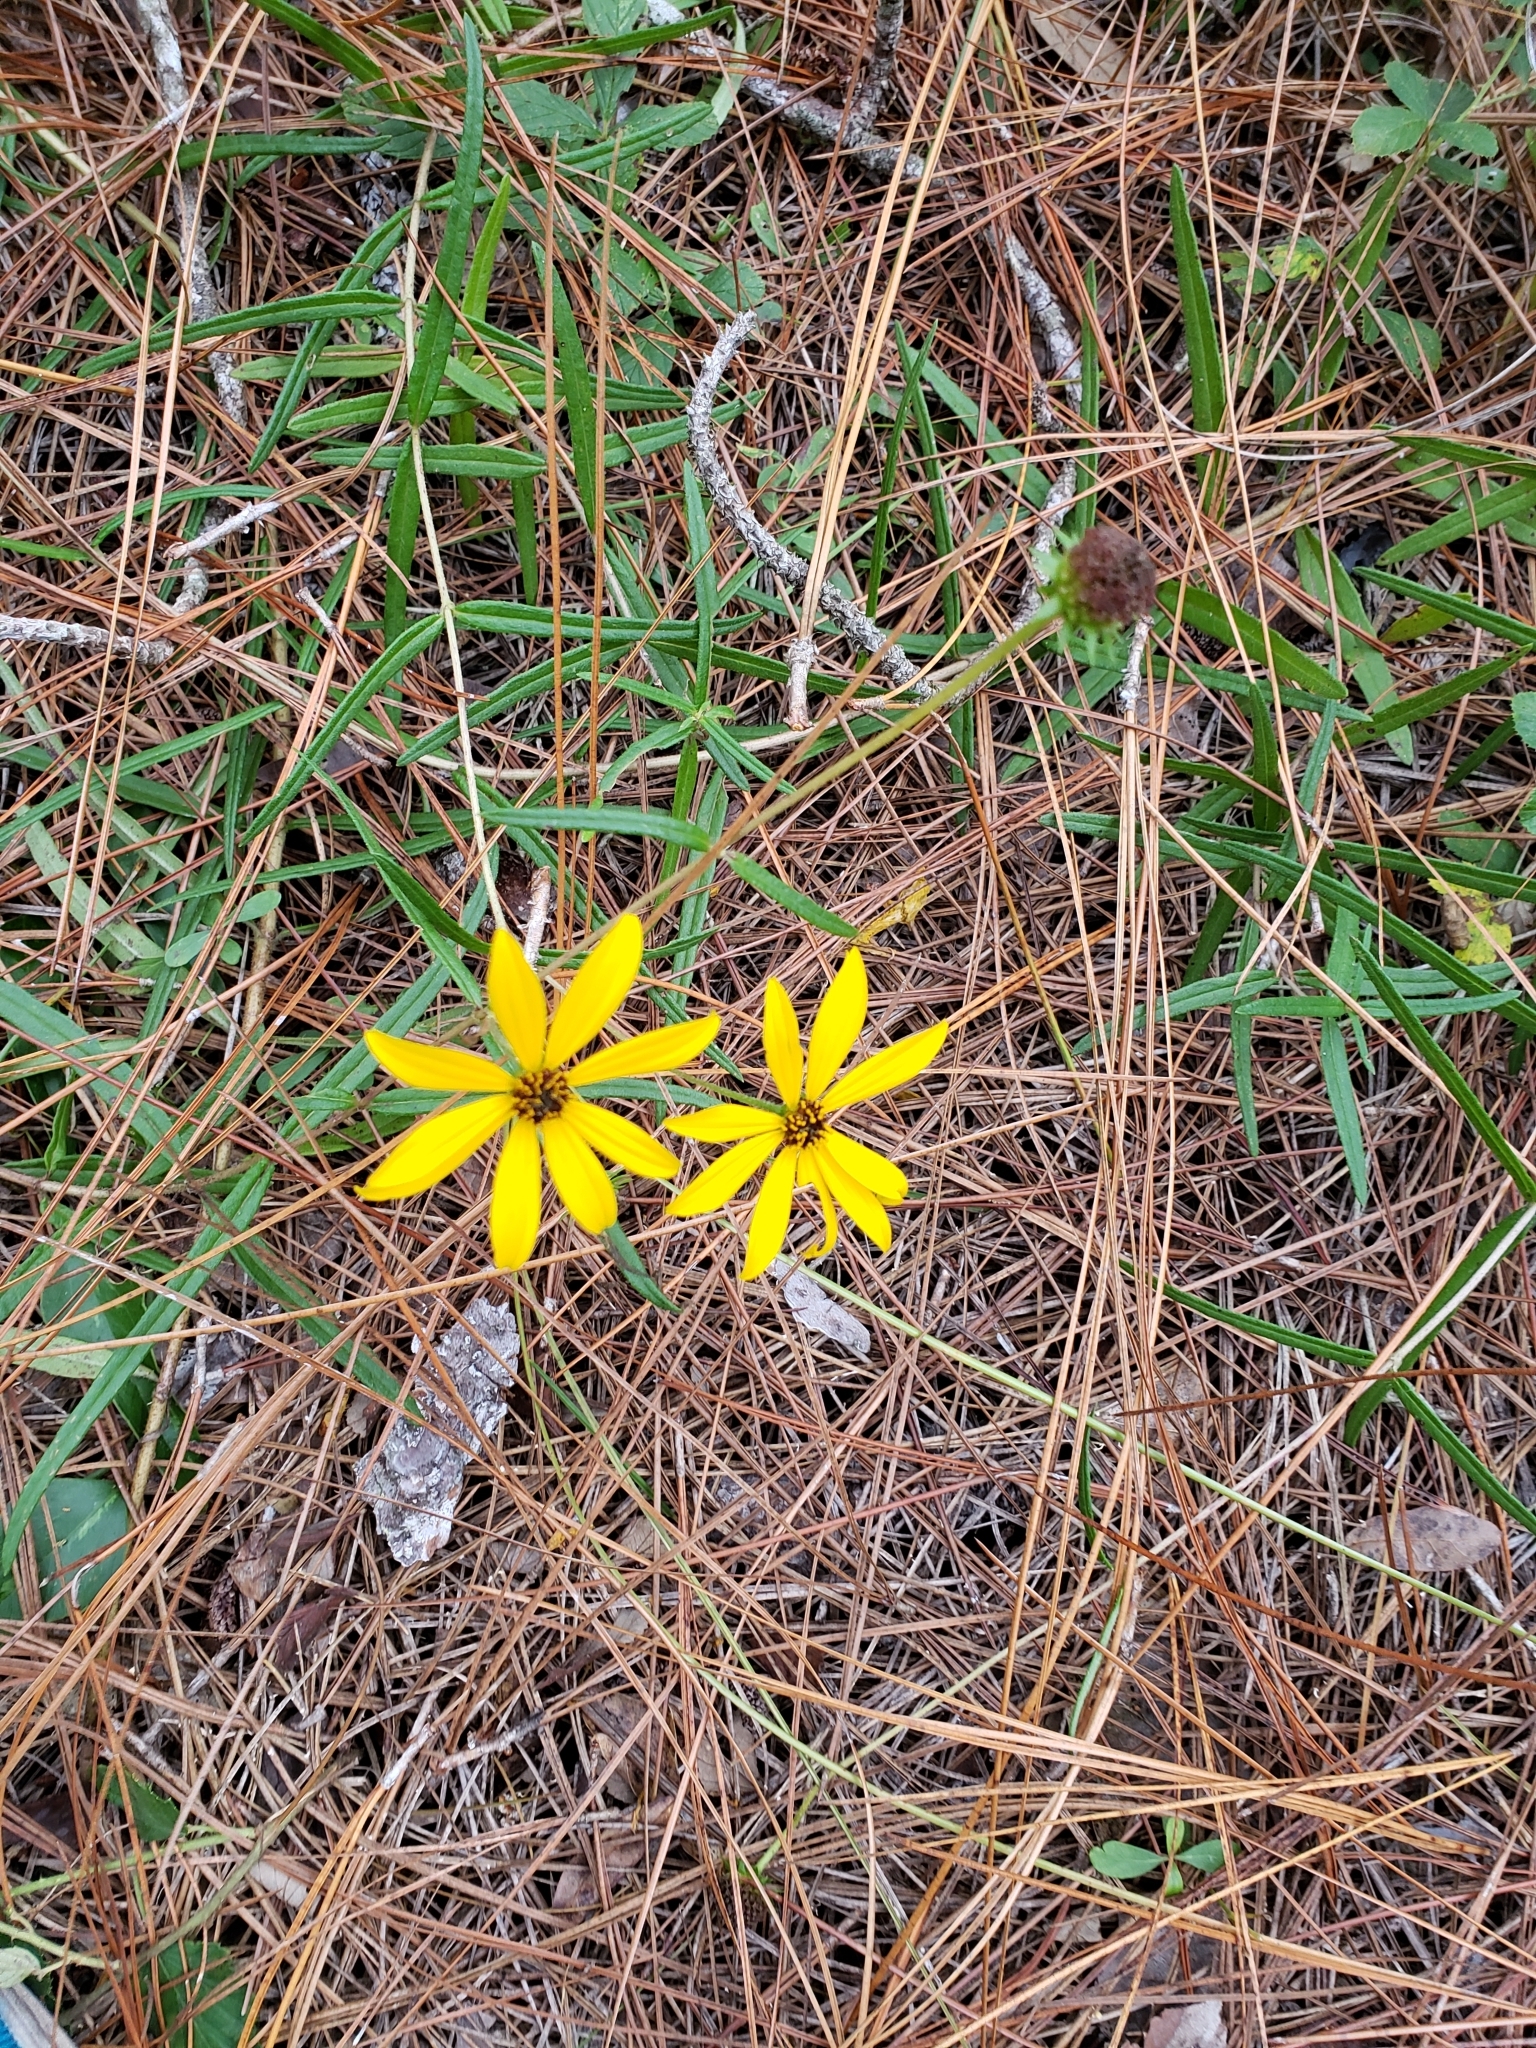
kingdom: Plantae
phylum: Tracheophyta
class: Magnoliopsida
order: Asterales
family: Asteraceae
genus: Helianthus
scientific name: Helianthus angustifolius
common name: Swamp sunflower
